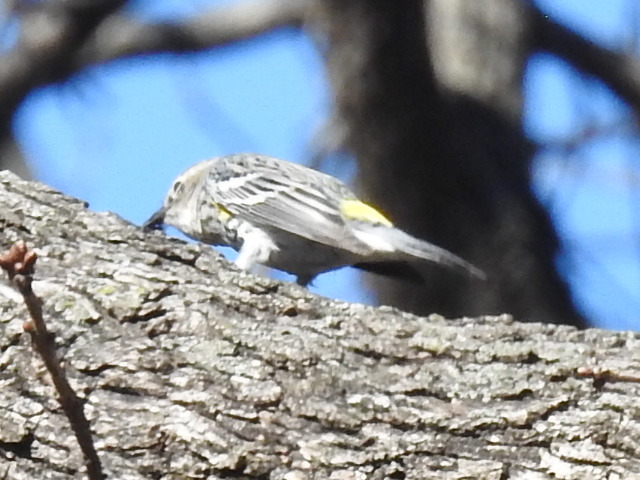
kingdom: Animalia
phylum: Chordata
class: Aves
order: Passeriformes
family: Parulidae
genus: Setophaga
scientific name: Setophaga coronata
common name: Myrtle warbler
